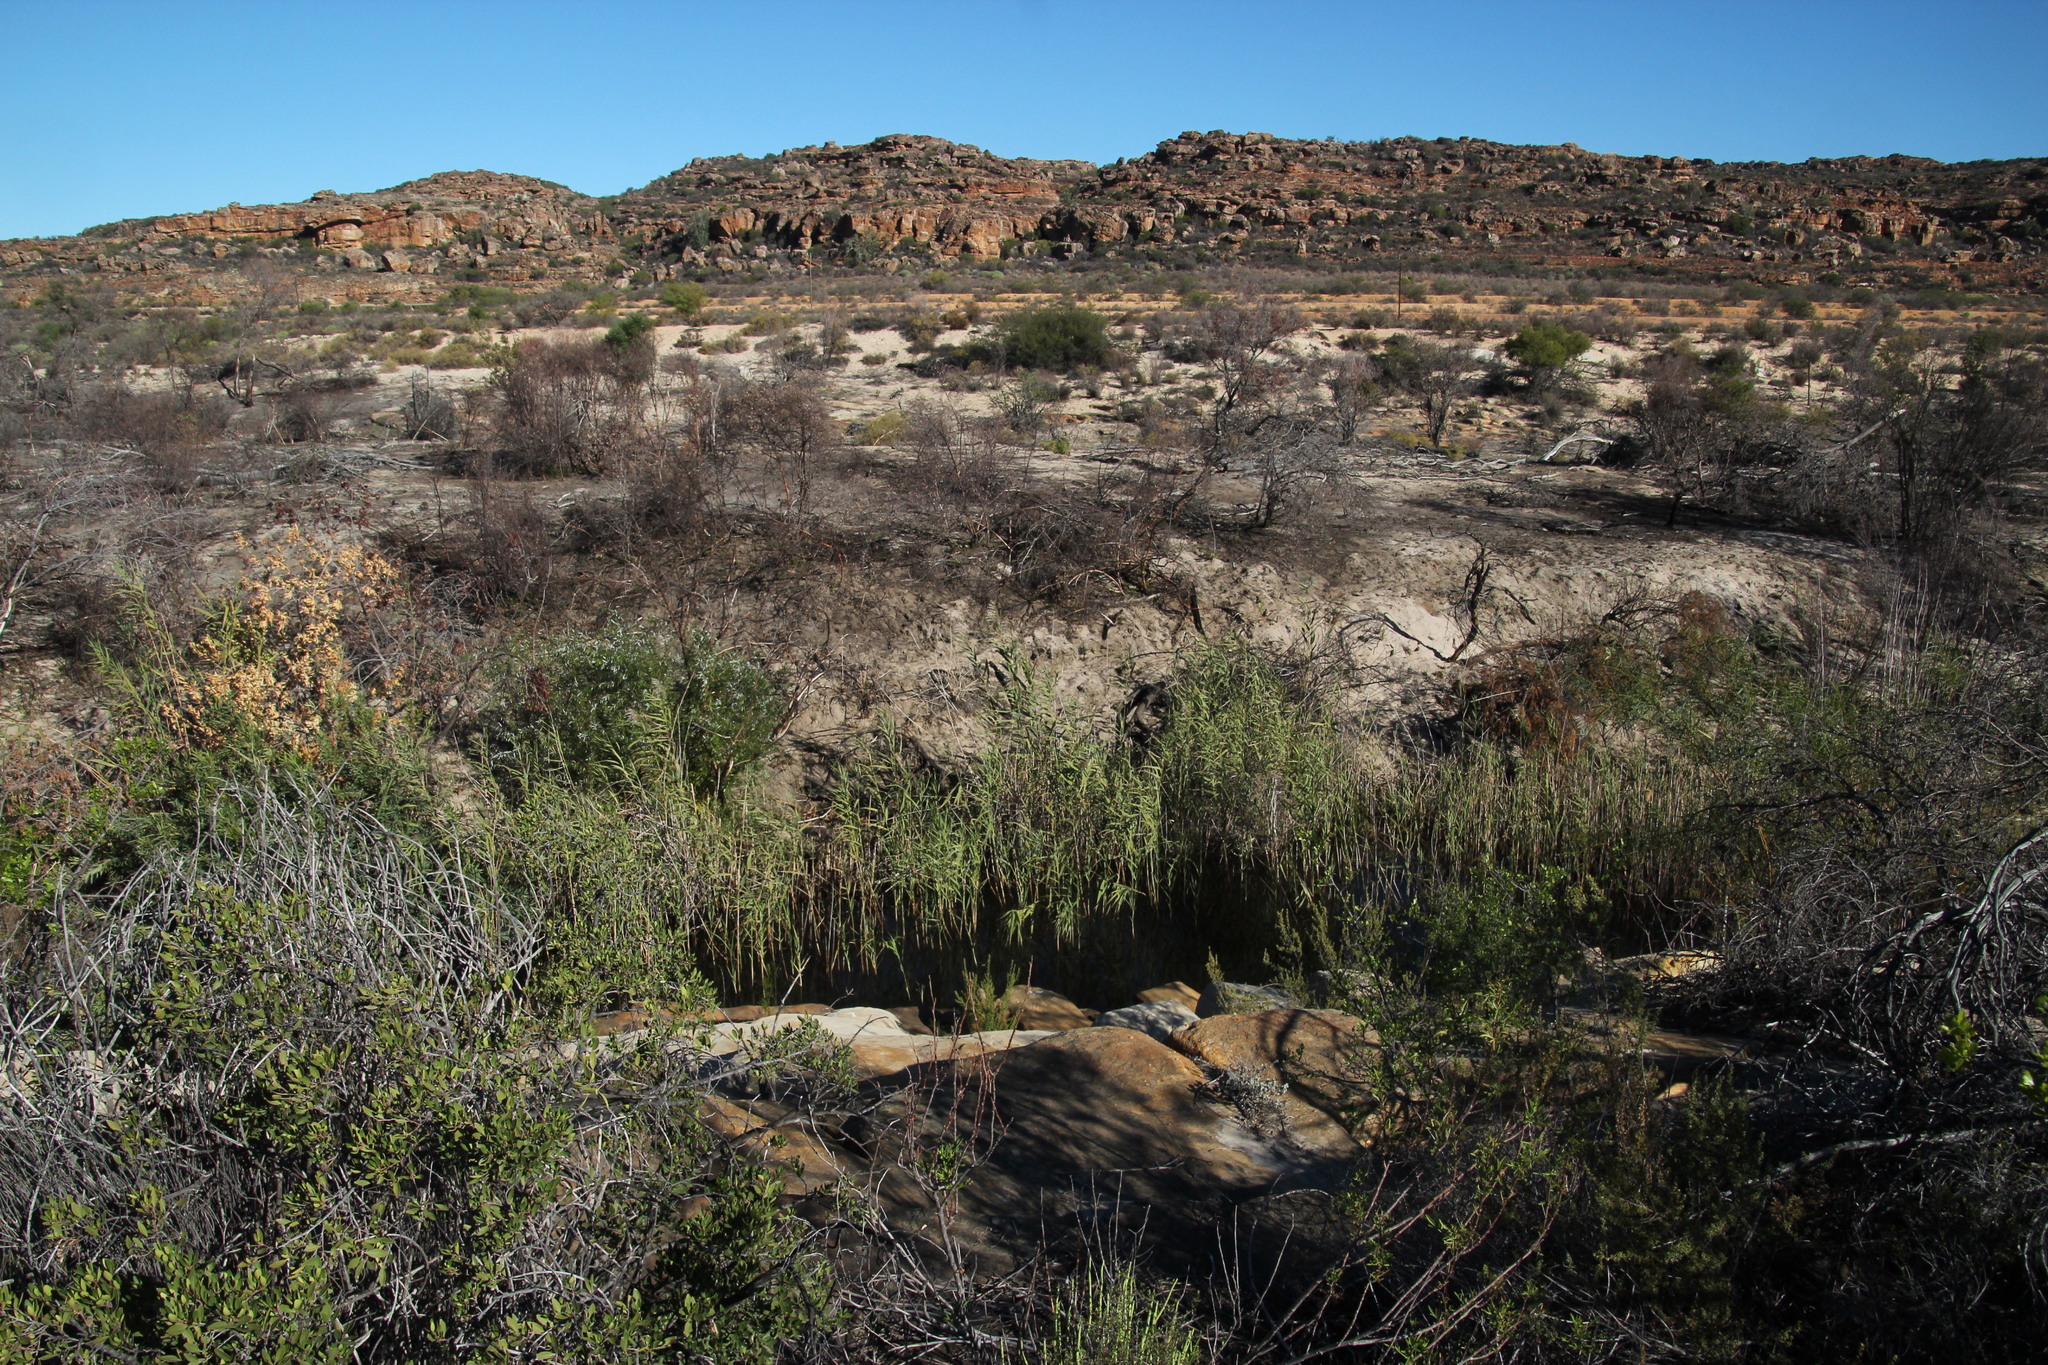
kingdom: Plantae
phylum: Tracheophyta
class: Liliopsida
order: Poales
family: Poaceae
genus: Phragmites
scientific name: Phragmites australis
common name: Common reed
